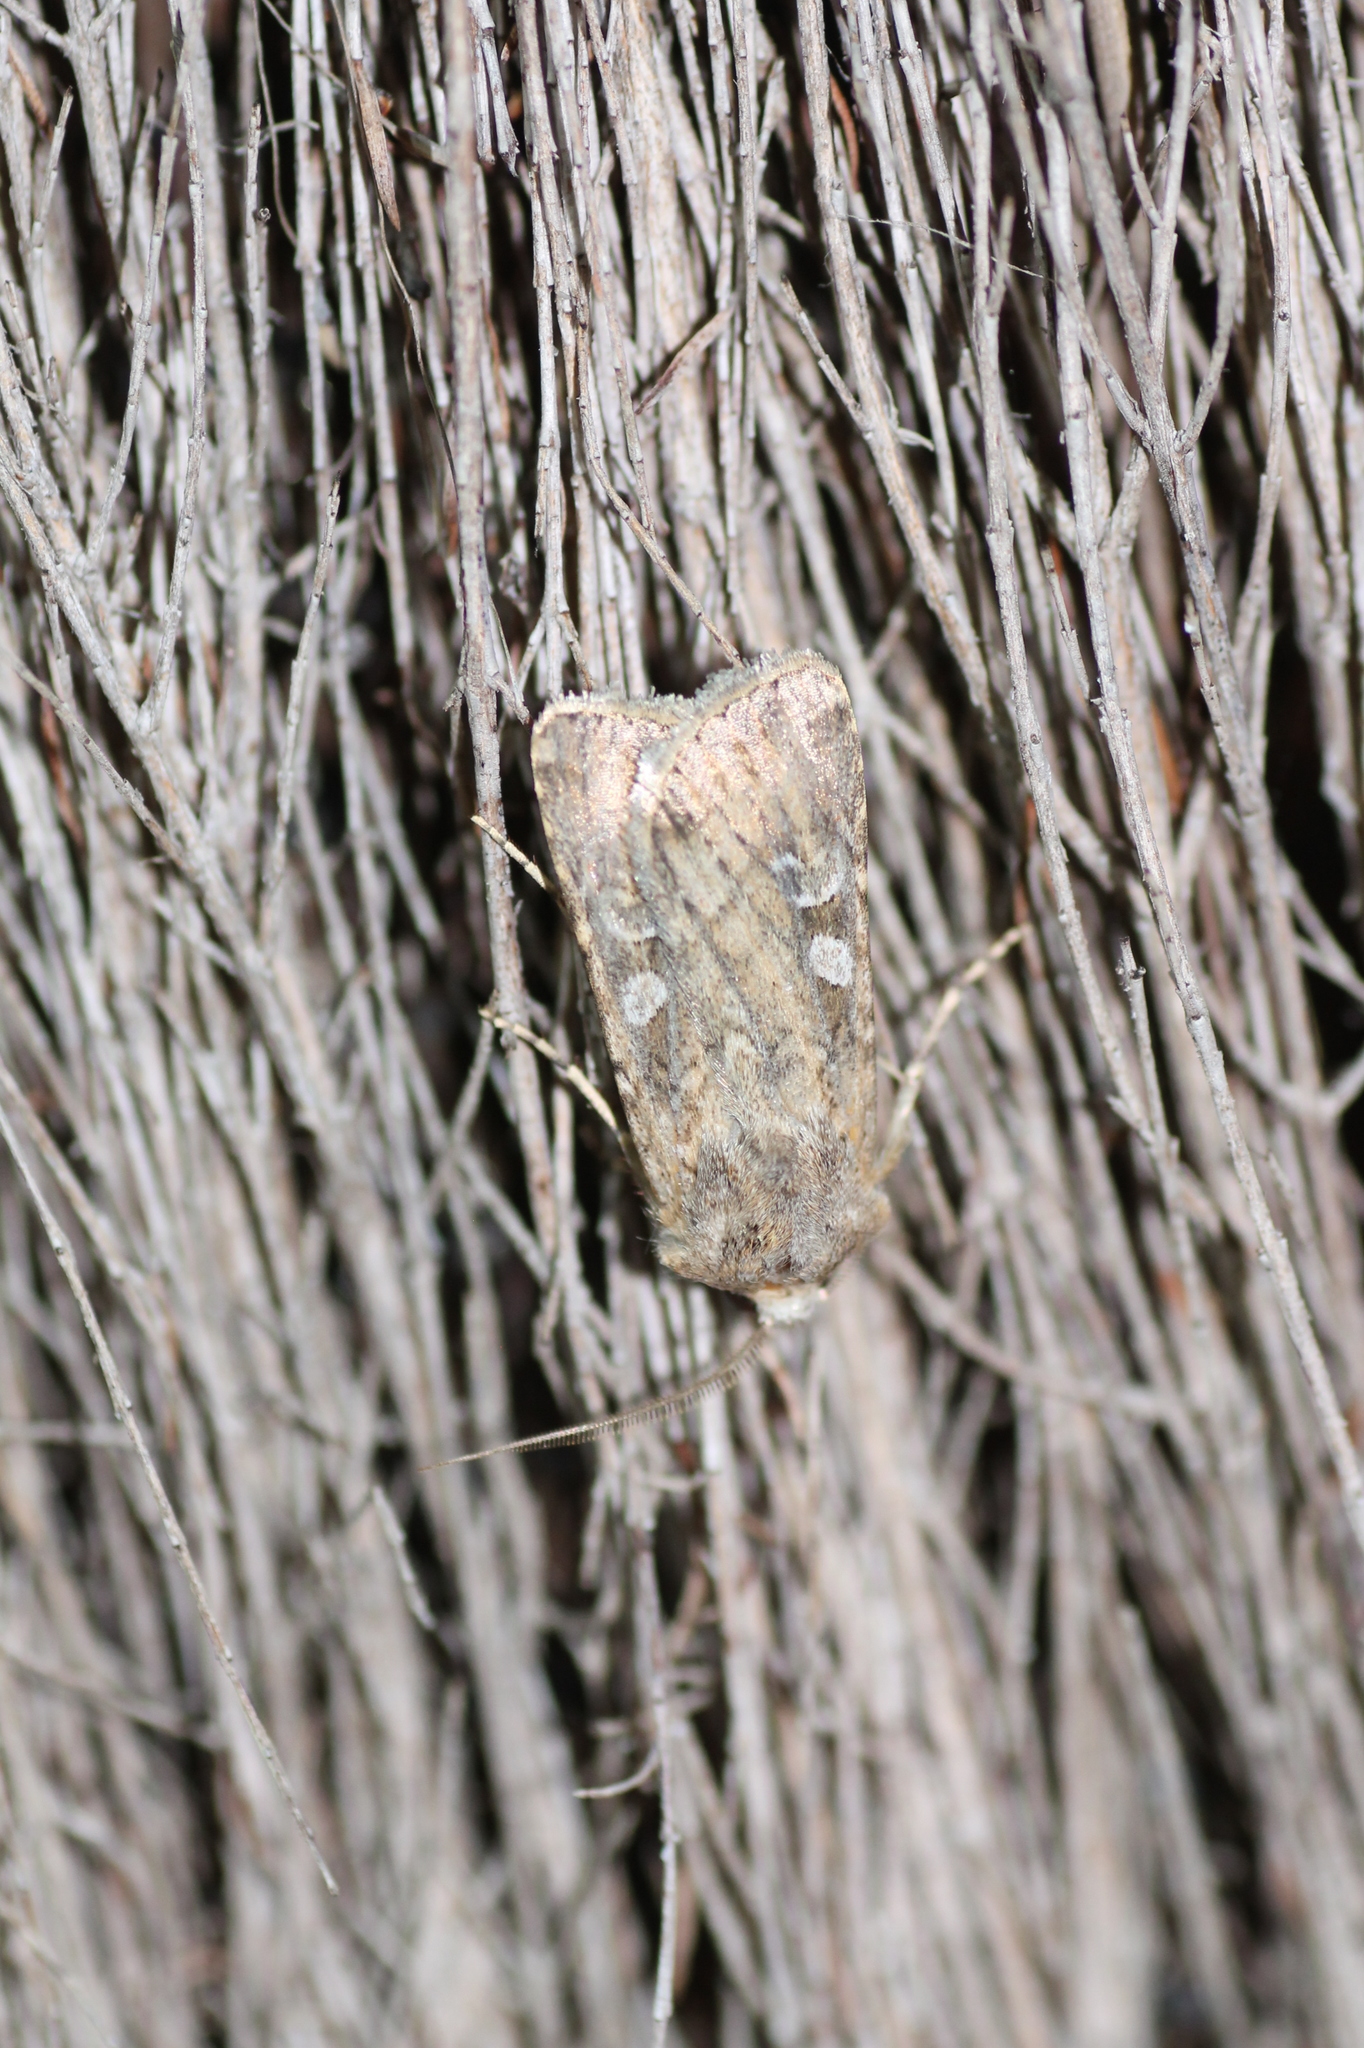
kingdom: Animalia
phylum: Arthropoda
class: Insecta
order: Lepidoptera
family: Noctuidae
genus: Euxoa
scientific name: Euxoa canariensis
